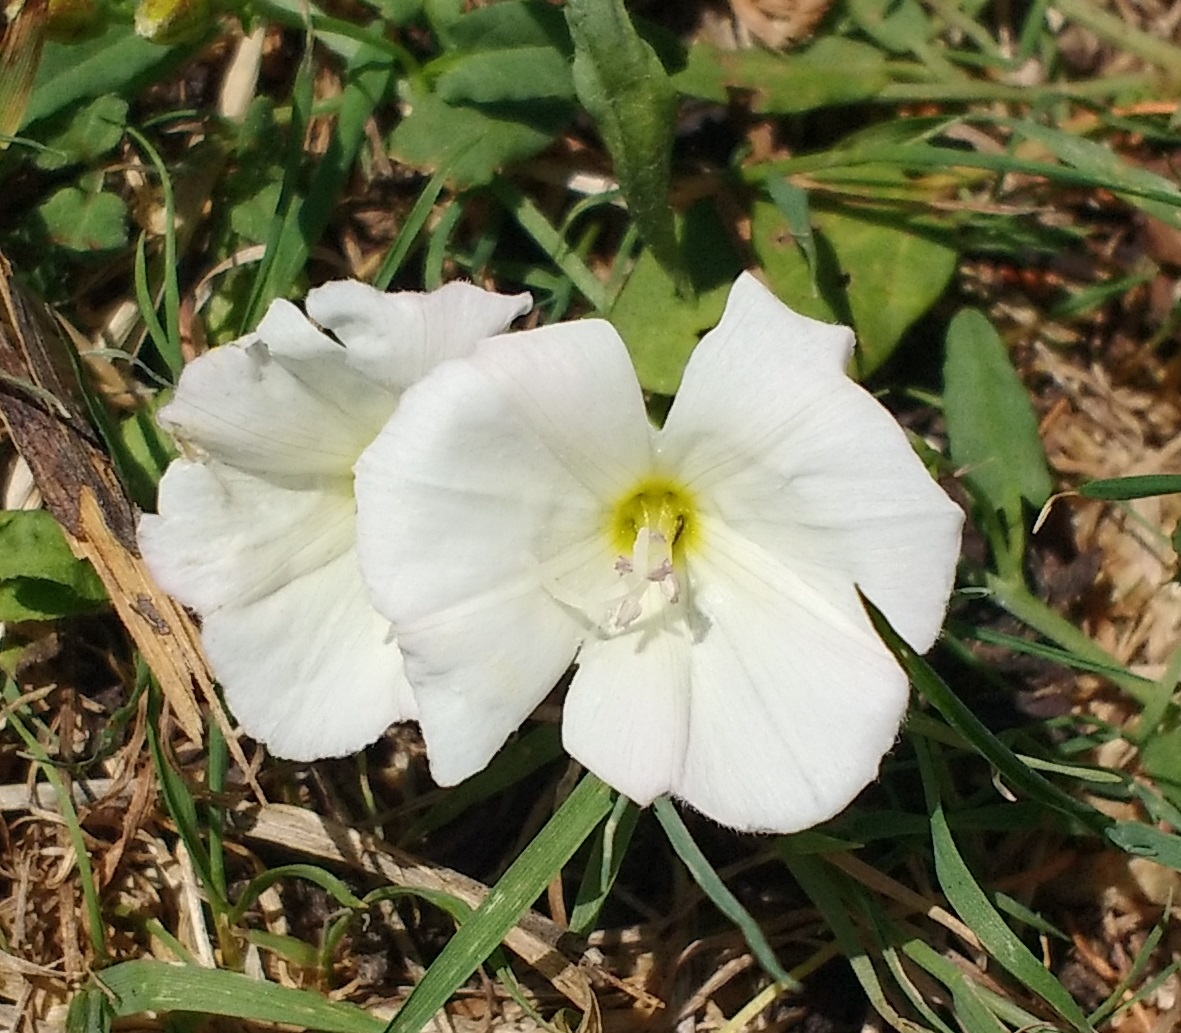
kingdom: Plantae
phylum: Tracheophyta
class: Magnoliopsida
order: Solanales
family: Convolvulaceae
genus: Convolvulus
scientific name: Convolvulus arvensis
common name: Field bindweed
